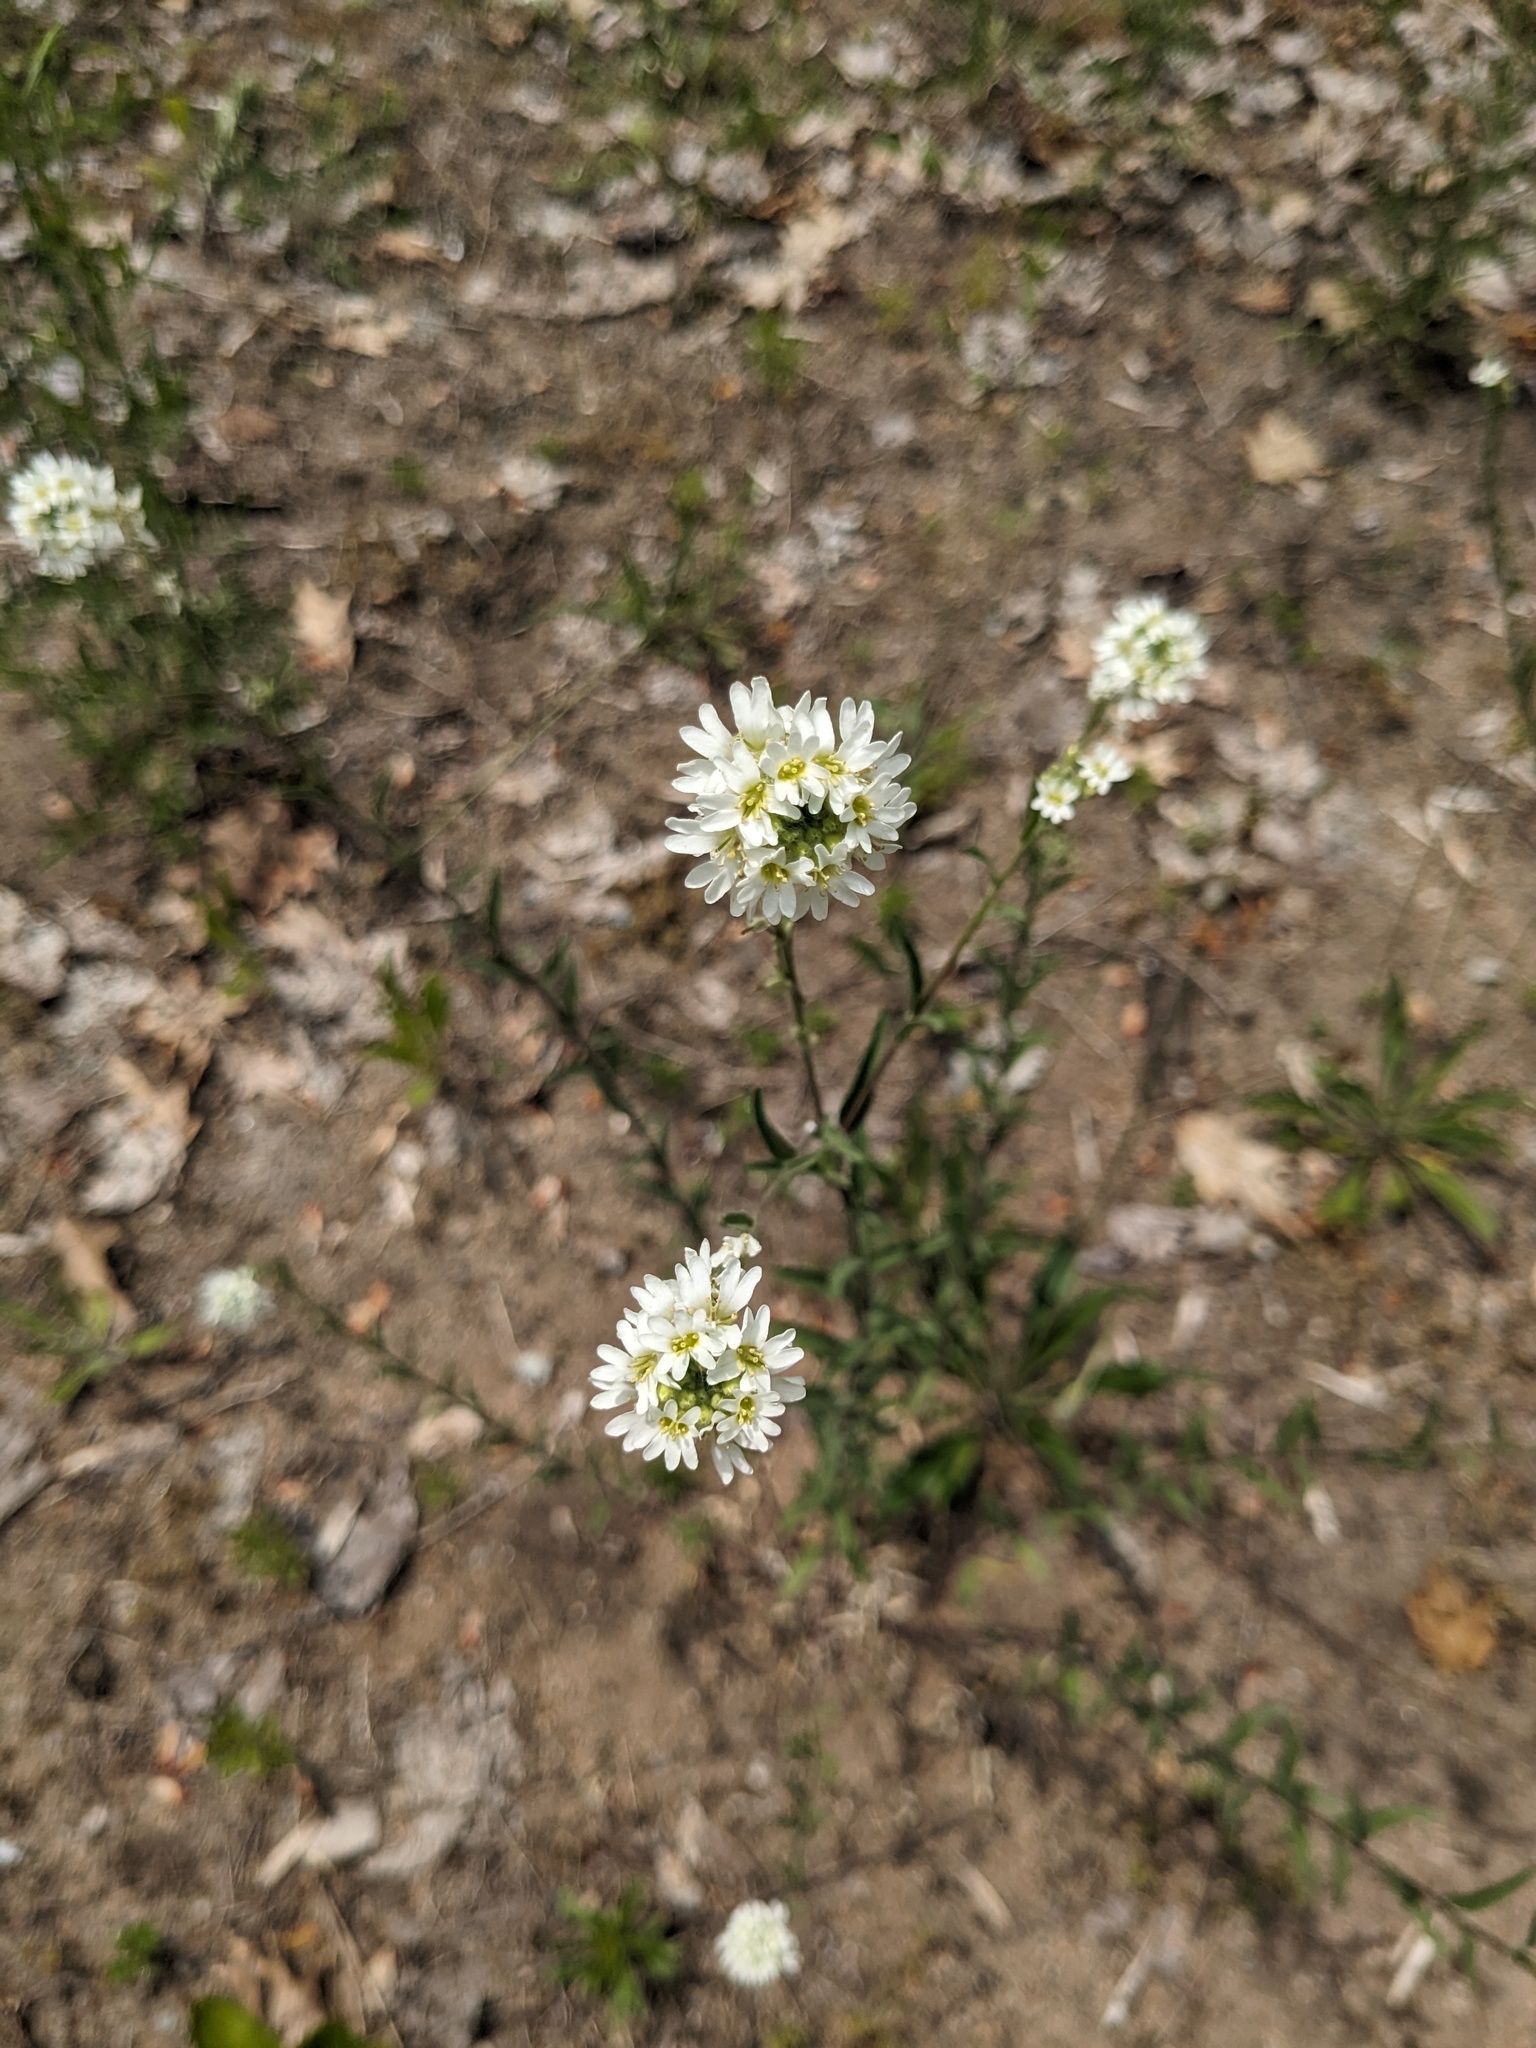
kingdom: Plantae
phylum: Tracheophyta
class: Magnoliopsida
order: Brassicales
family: Brassicaceae
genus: Berteroa
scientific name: Berteroa incana
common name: Hoary alison
